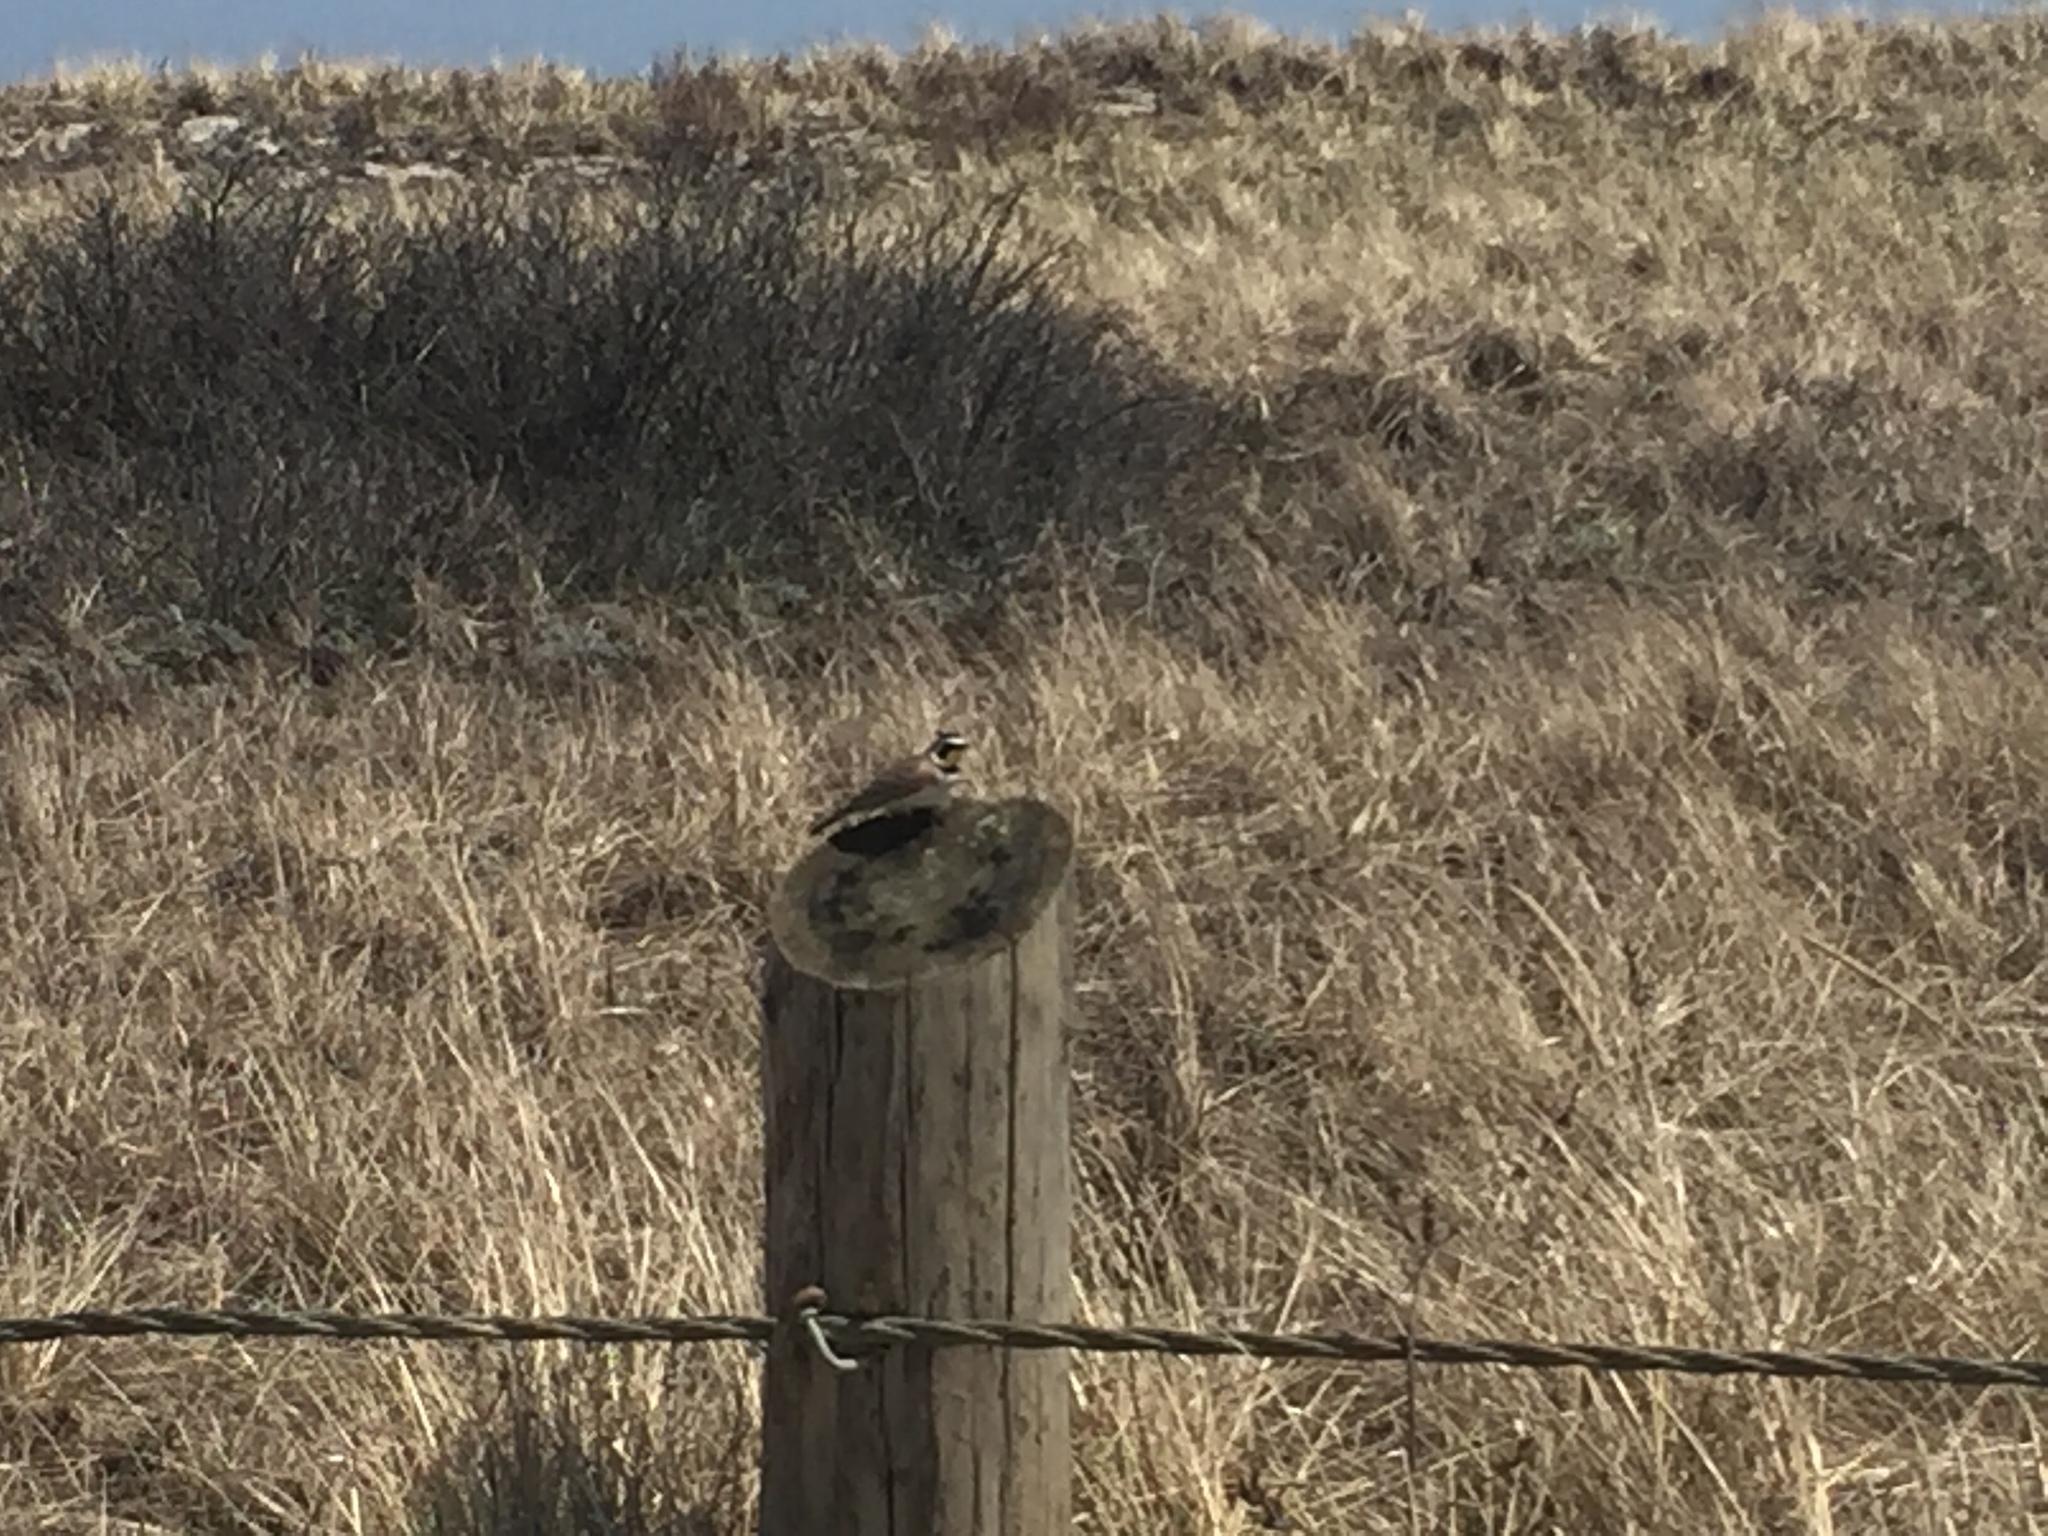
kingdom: Animalia
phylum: Chordata
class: Aves
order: Passeriformes
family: Alaudidae
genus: Eremophila
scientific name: Eremophila alpestris
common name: Horned lark
